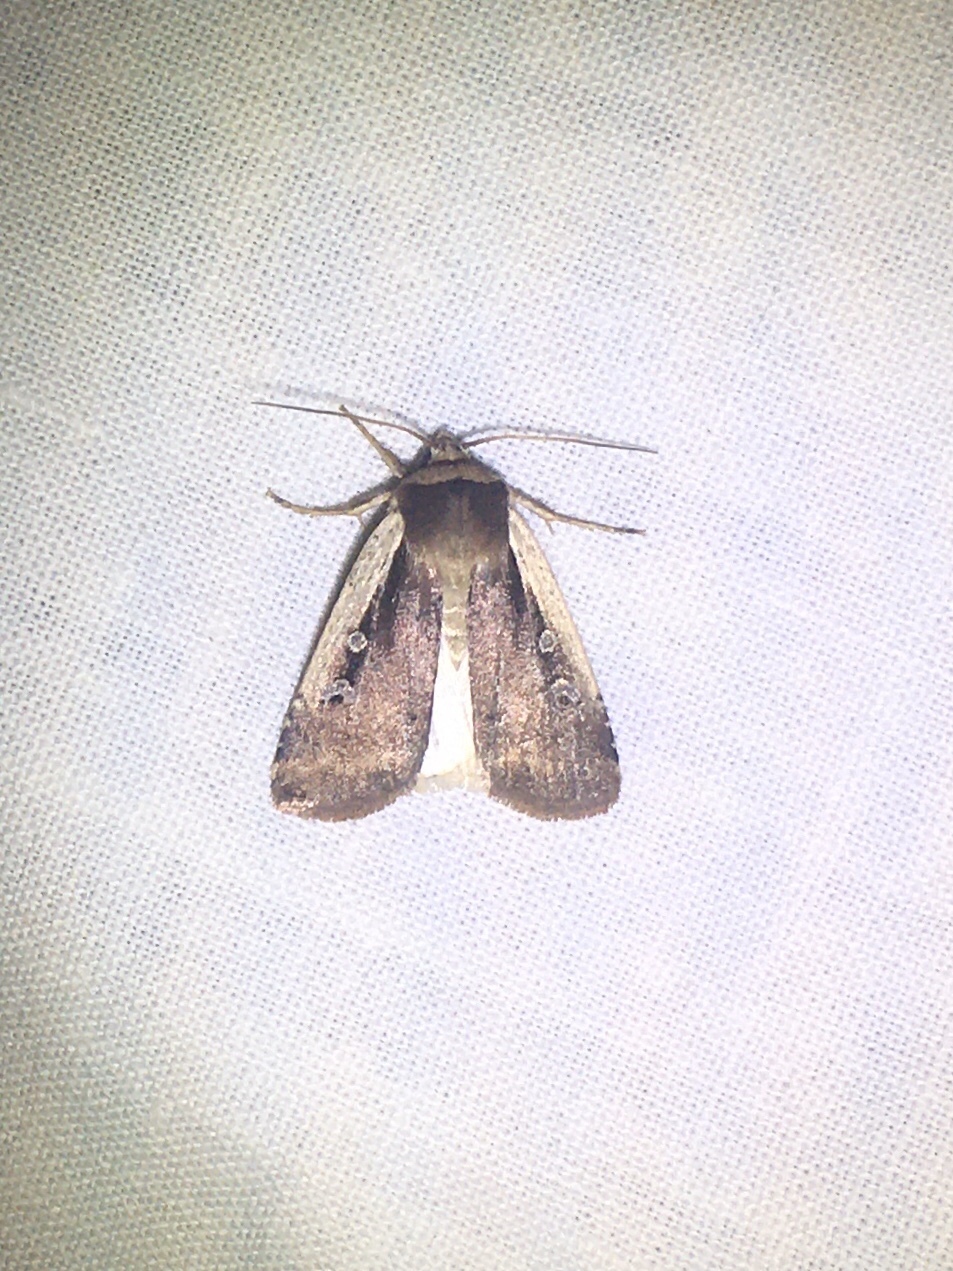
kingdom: Animalia
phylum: Arthropoda
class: Insecta
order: Lepidoptera
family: Noctuidae
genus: Ochropleura
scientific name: Ochropleura implecta
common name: Flame-shouldered dart
